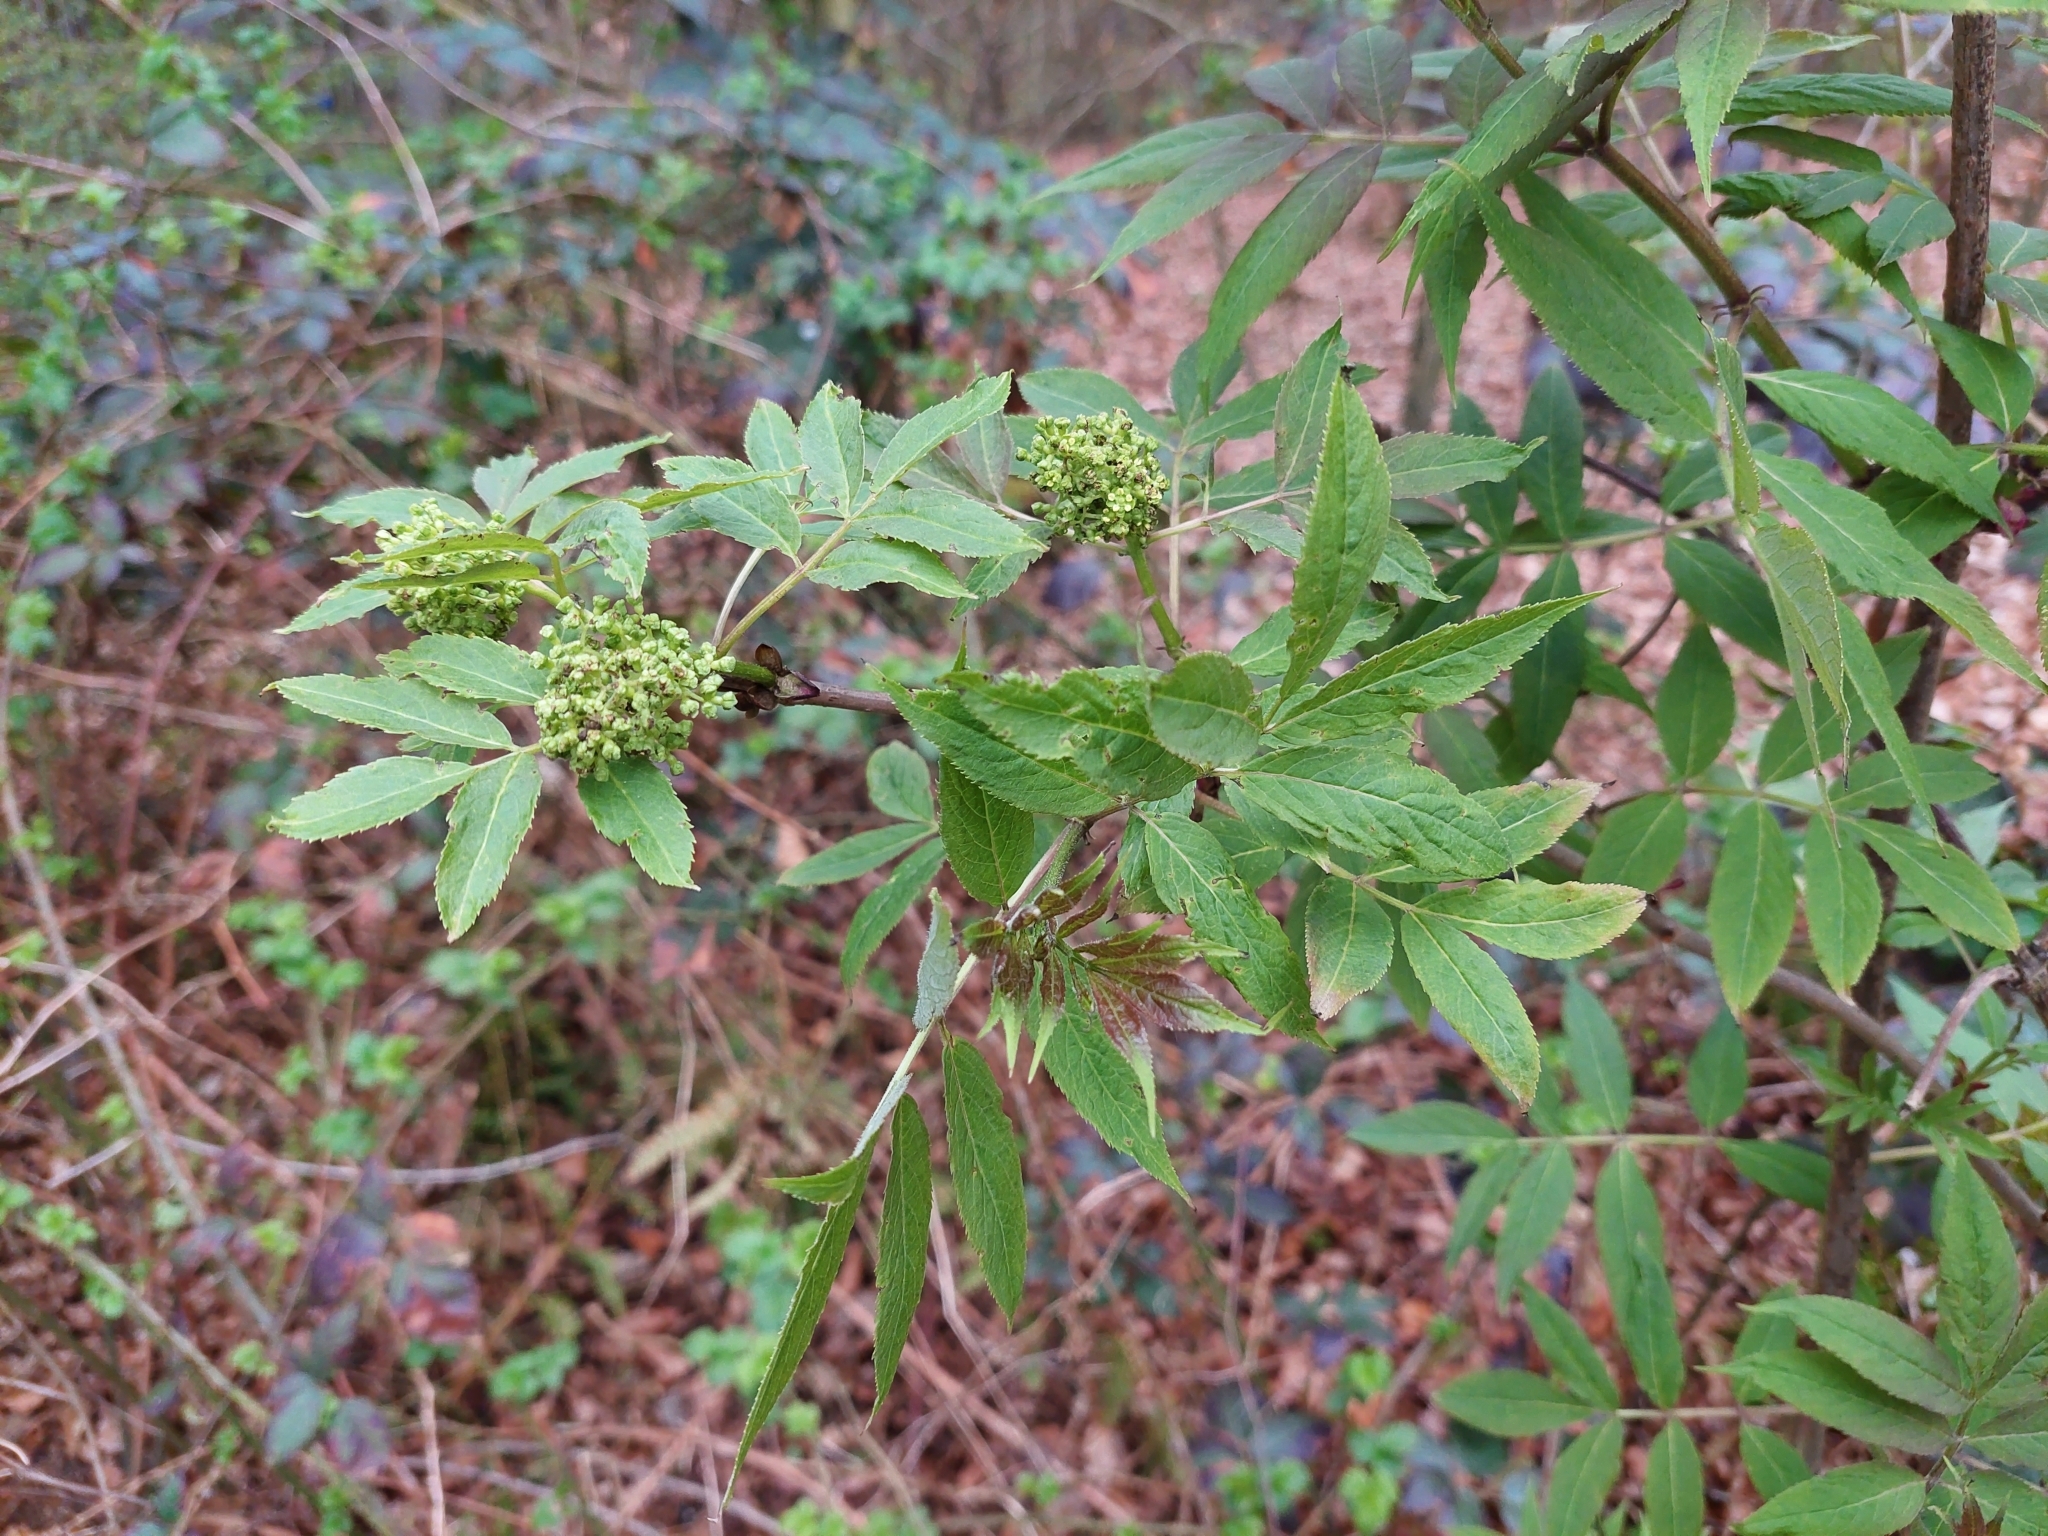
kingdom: Plantae
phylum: Tracheophyta
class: Magnoliopsida
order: Dipsacales
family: Viburnaceae
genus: Sambucus
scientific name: Sambucus racemosa
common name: Red-berried elder
